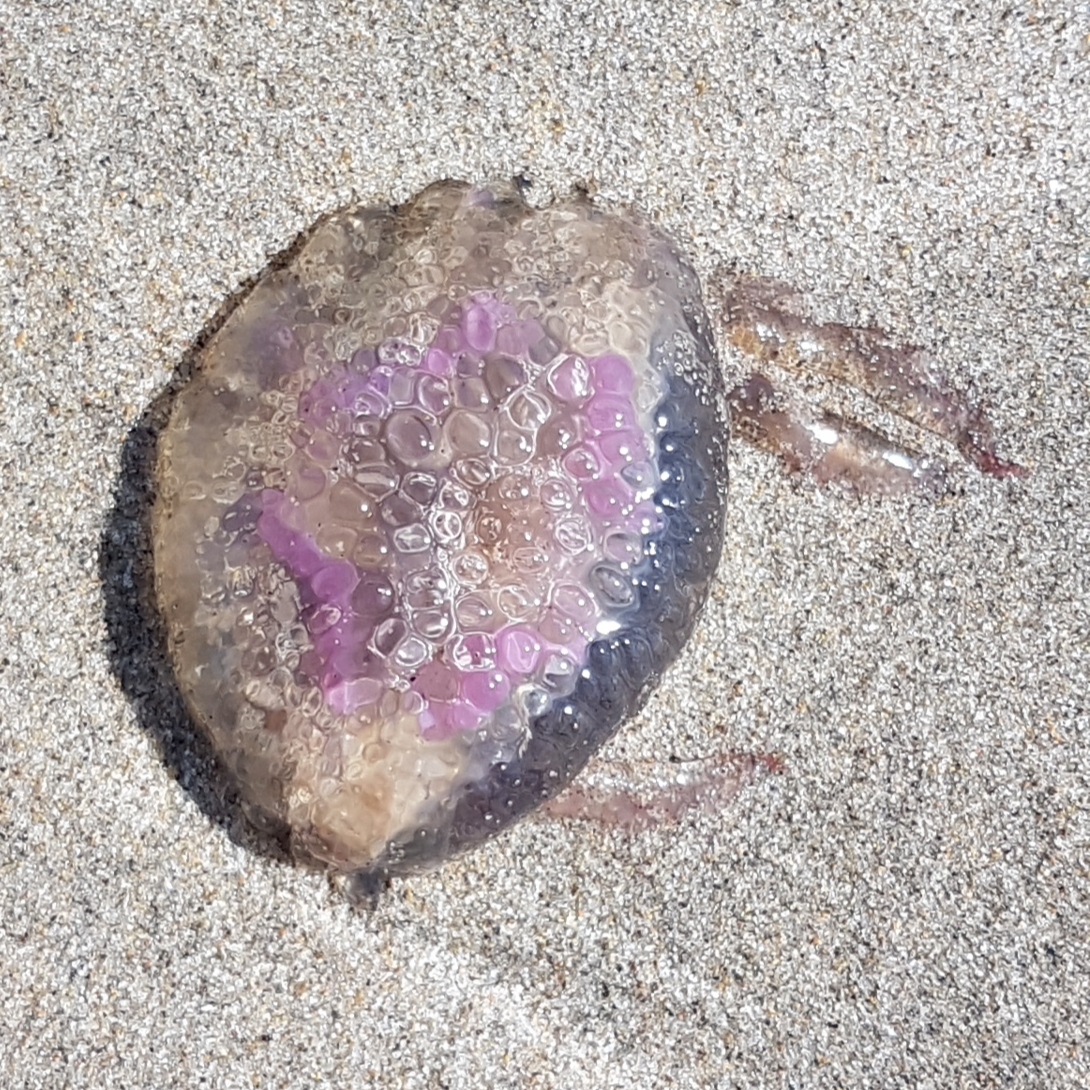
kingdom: Animalia
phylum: Cnidaria
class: Scyphozoa
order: Semaeostomeae
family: Pelagiidae
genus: Pelagia
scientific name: Pelagia noctiluca
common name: Mauve stinger
